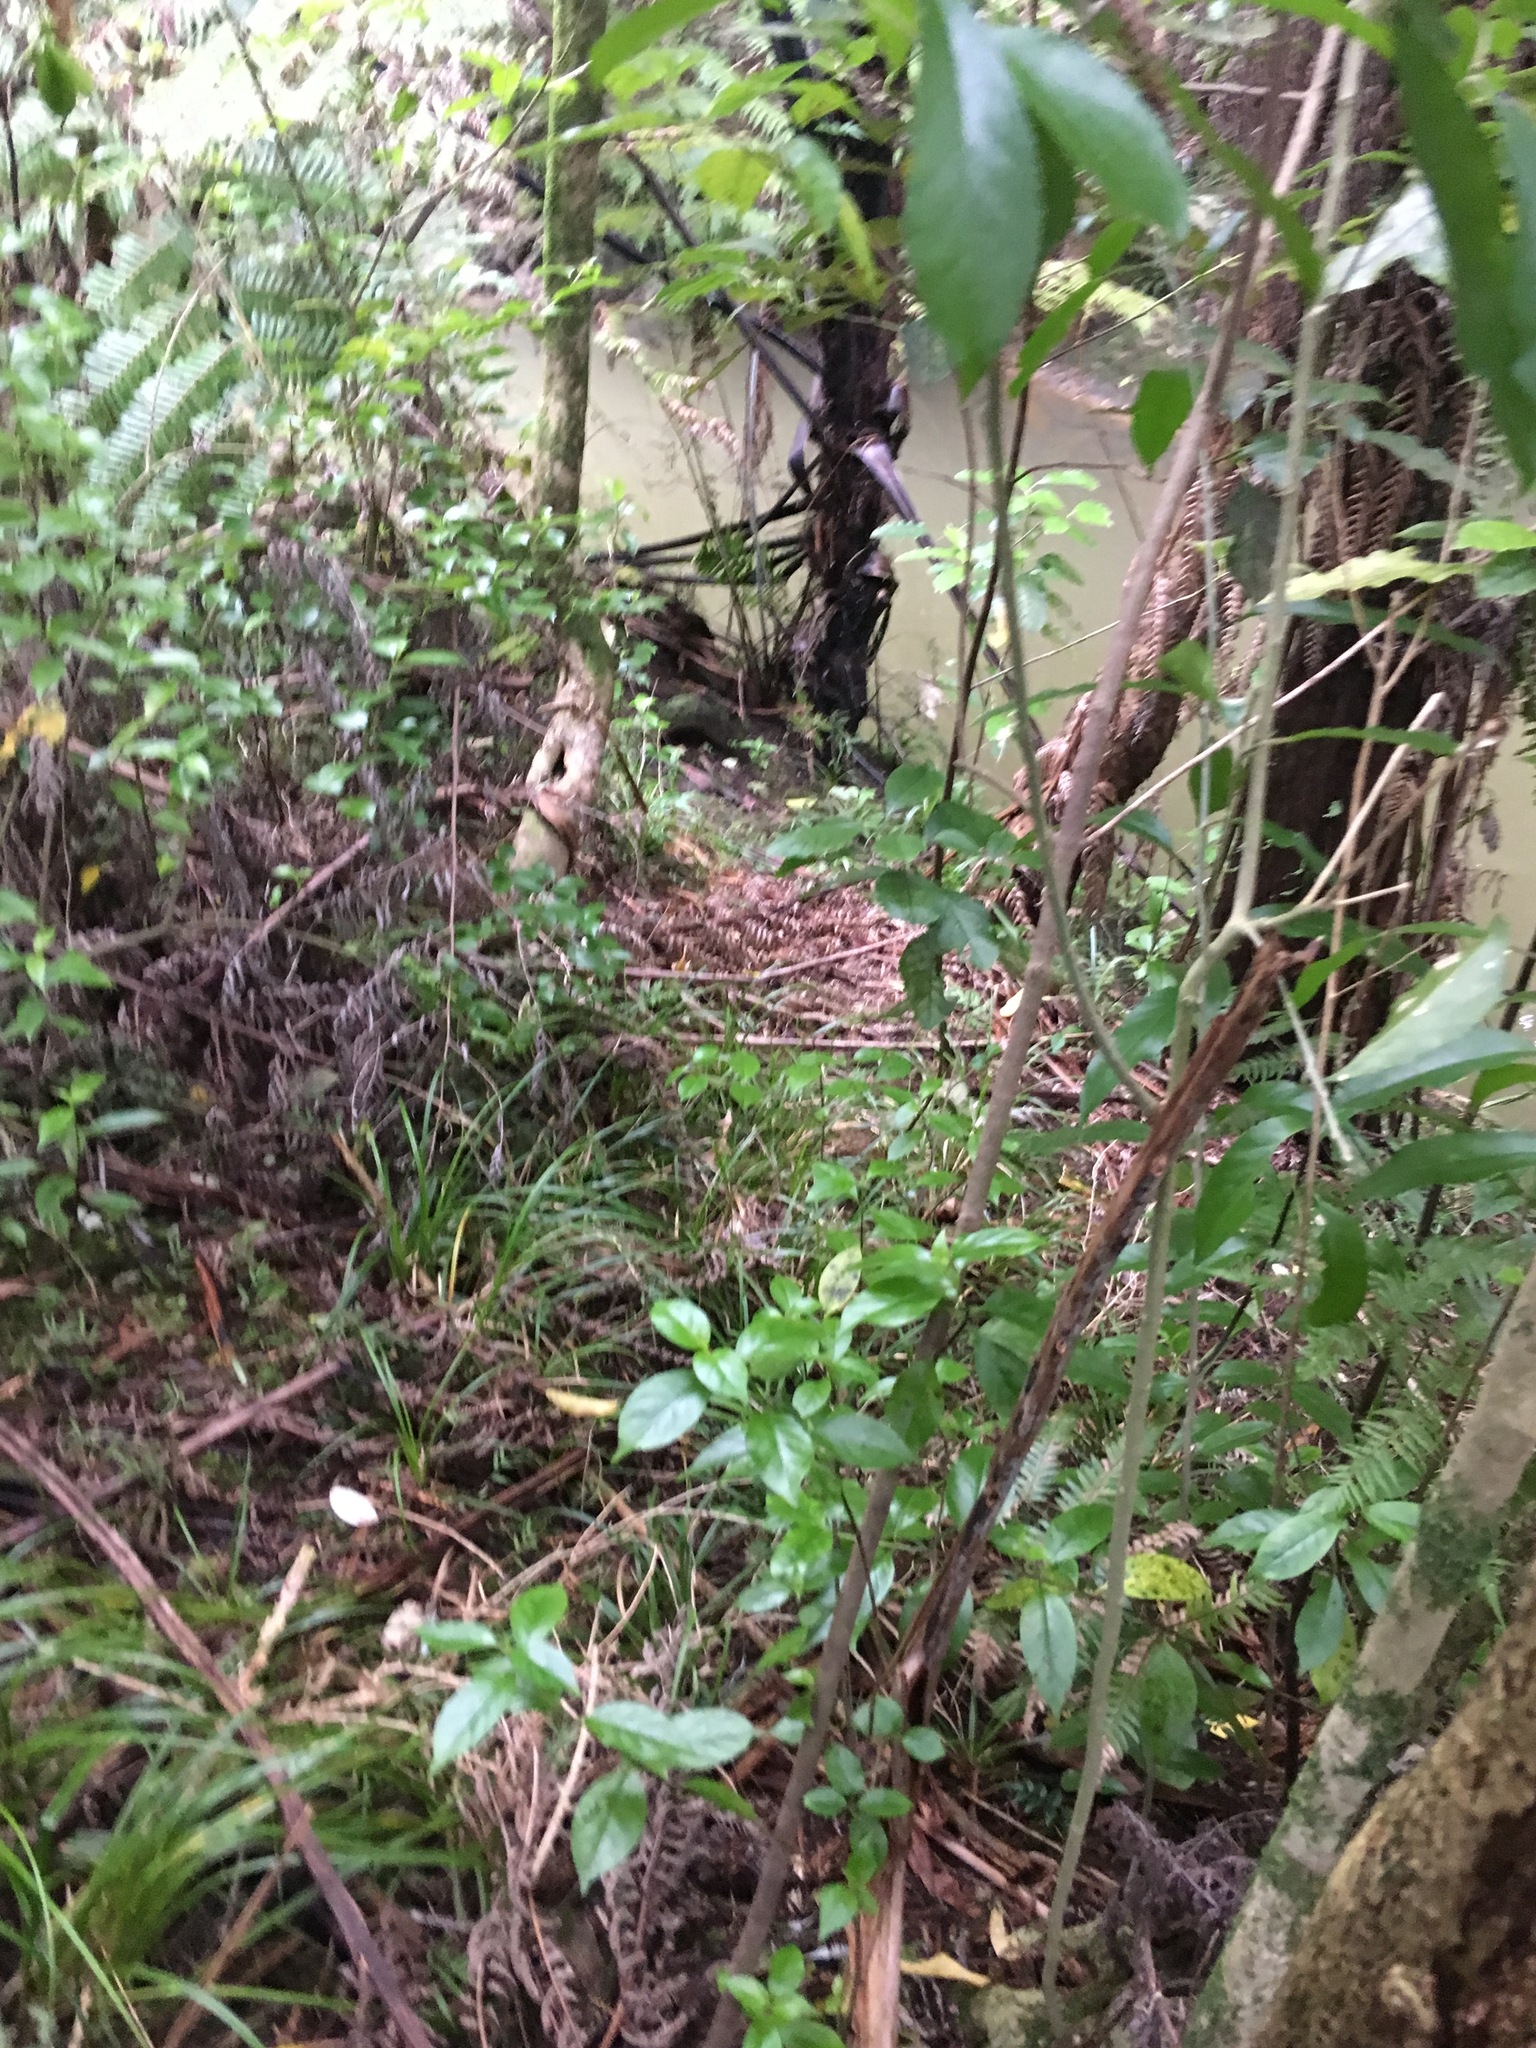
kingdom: Plantae
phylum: Tracheophyta
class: Magnoliopsida
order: Gentianales
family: Loganiaceae
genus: Geniostoma
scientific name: Geniostoma ligustrifolium
